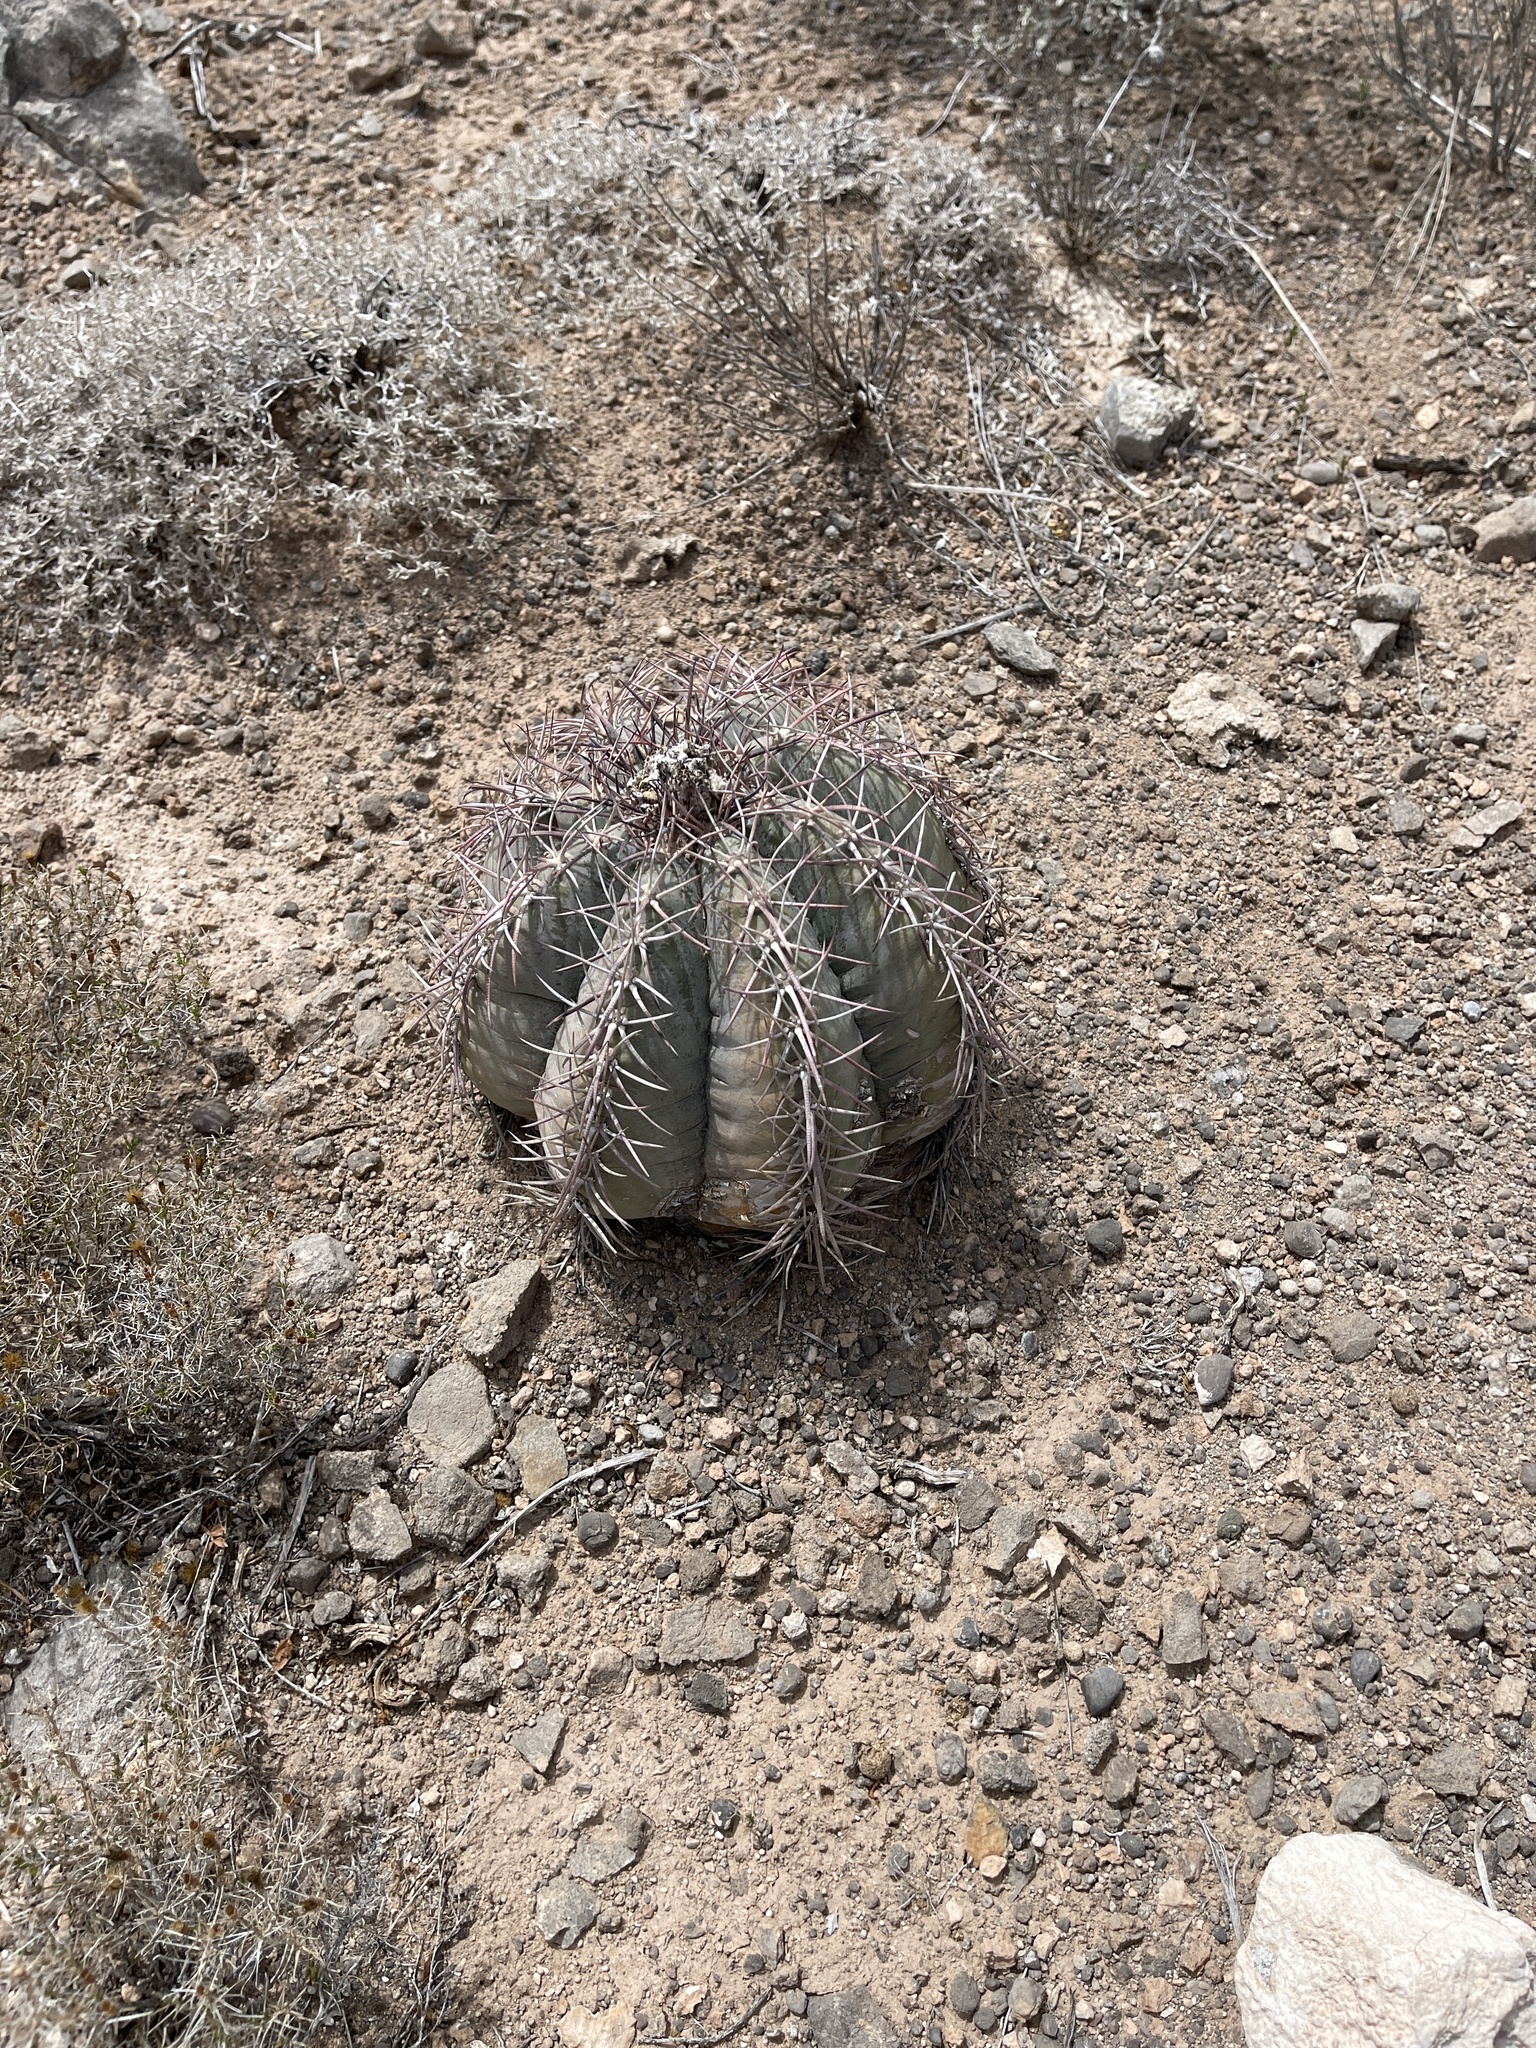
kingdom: Plantae
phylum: Tracheophyta
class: Magnoliopsida
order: Caryophyllales
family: Cactaceae
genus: Echinocactus
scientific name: Echinocactus horizonthalonius
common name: Devilshead
